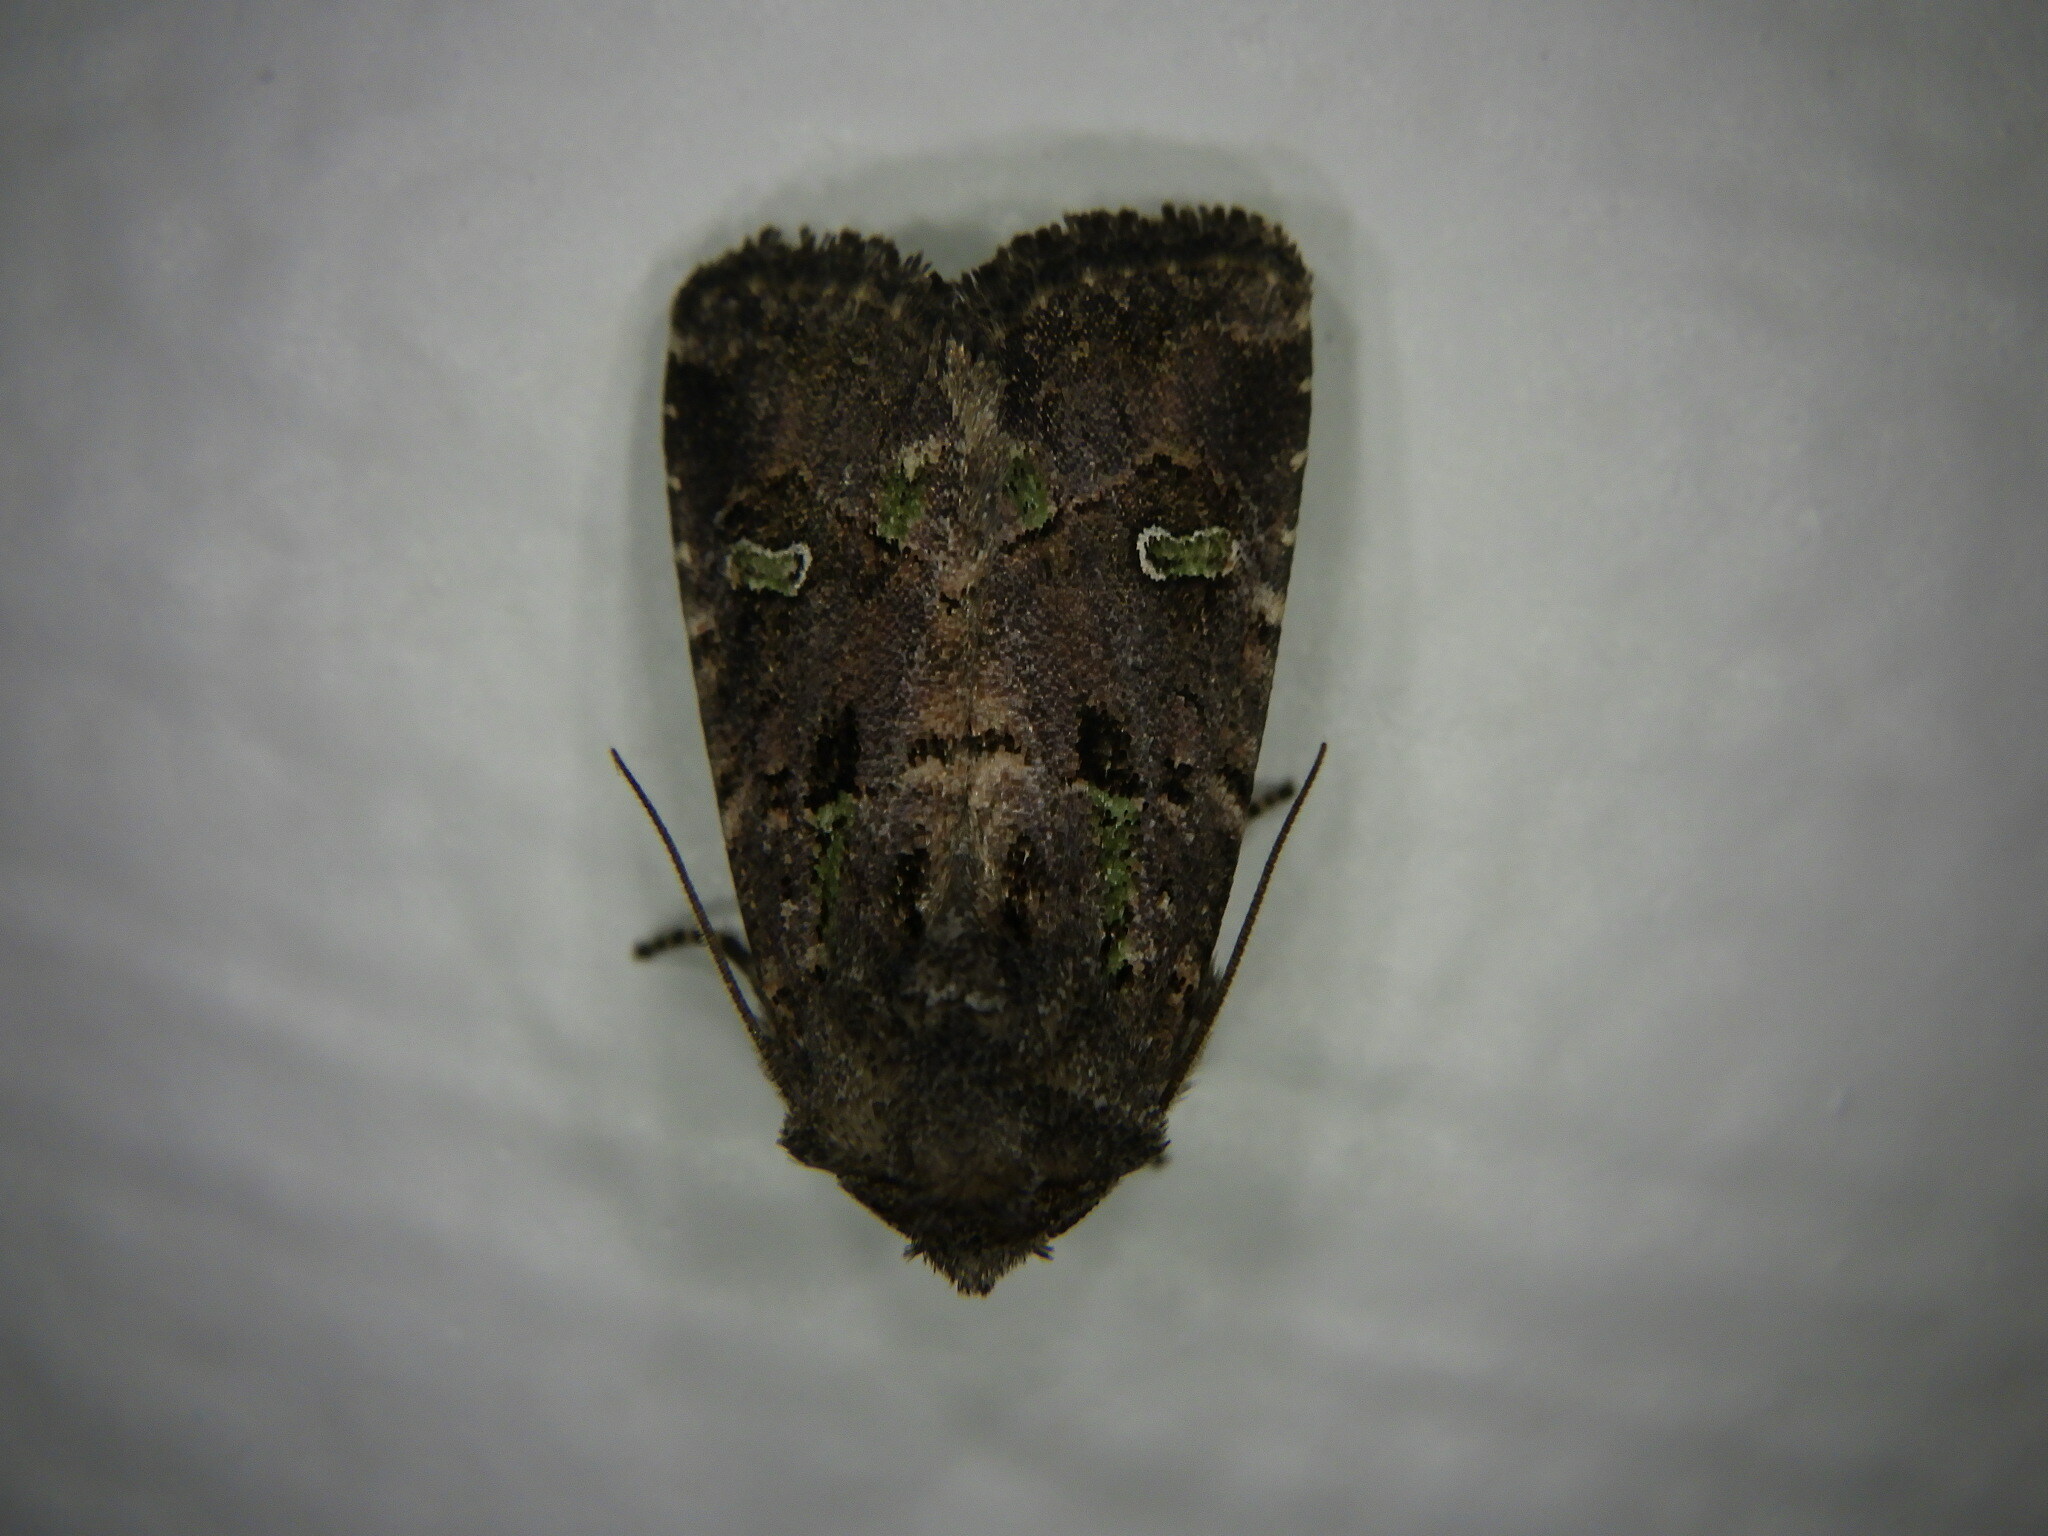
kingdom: Animalia
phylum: Arthropoda
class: Insecta
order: Lepidoptera
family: Noctuidae
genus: Lacinipolia
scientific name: Lacinipolia renigera
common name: Kidney-spotted minor
